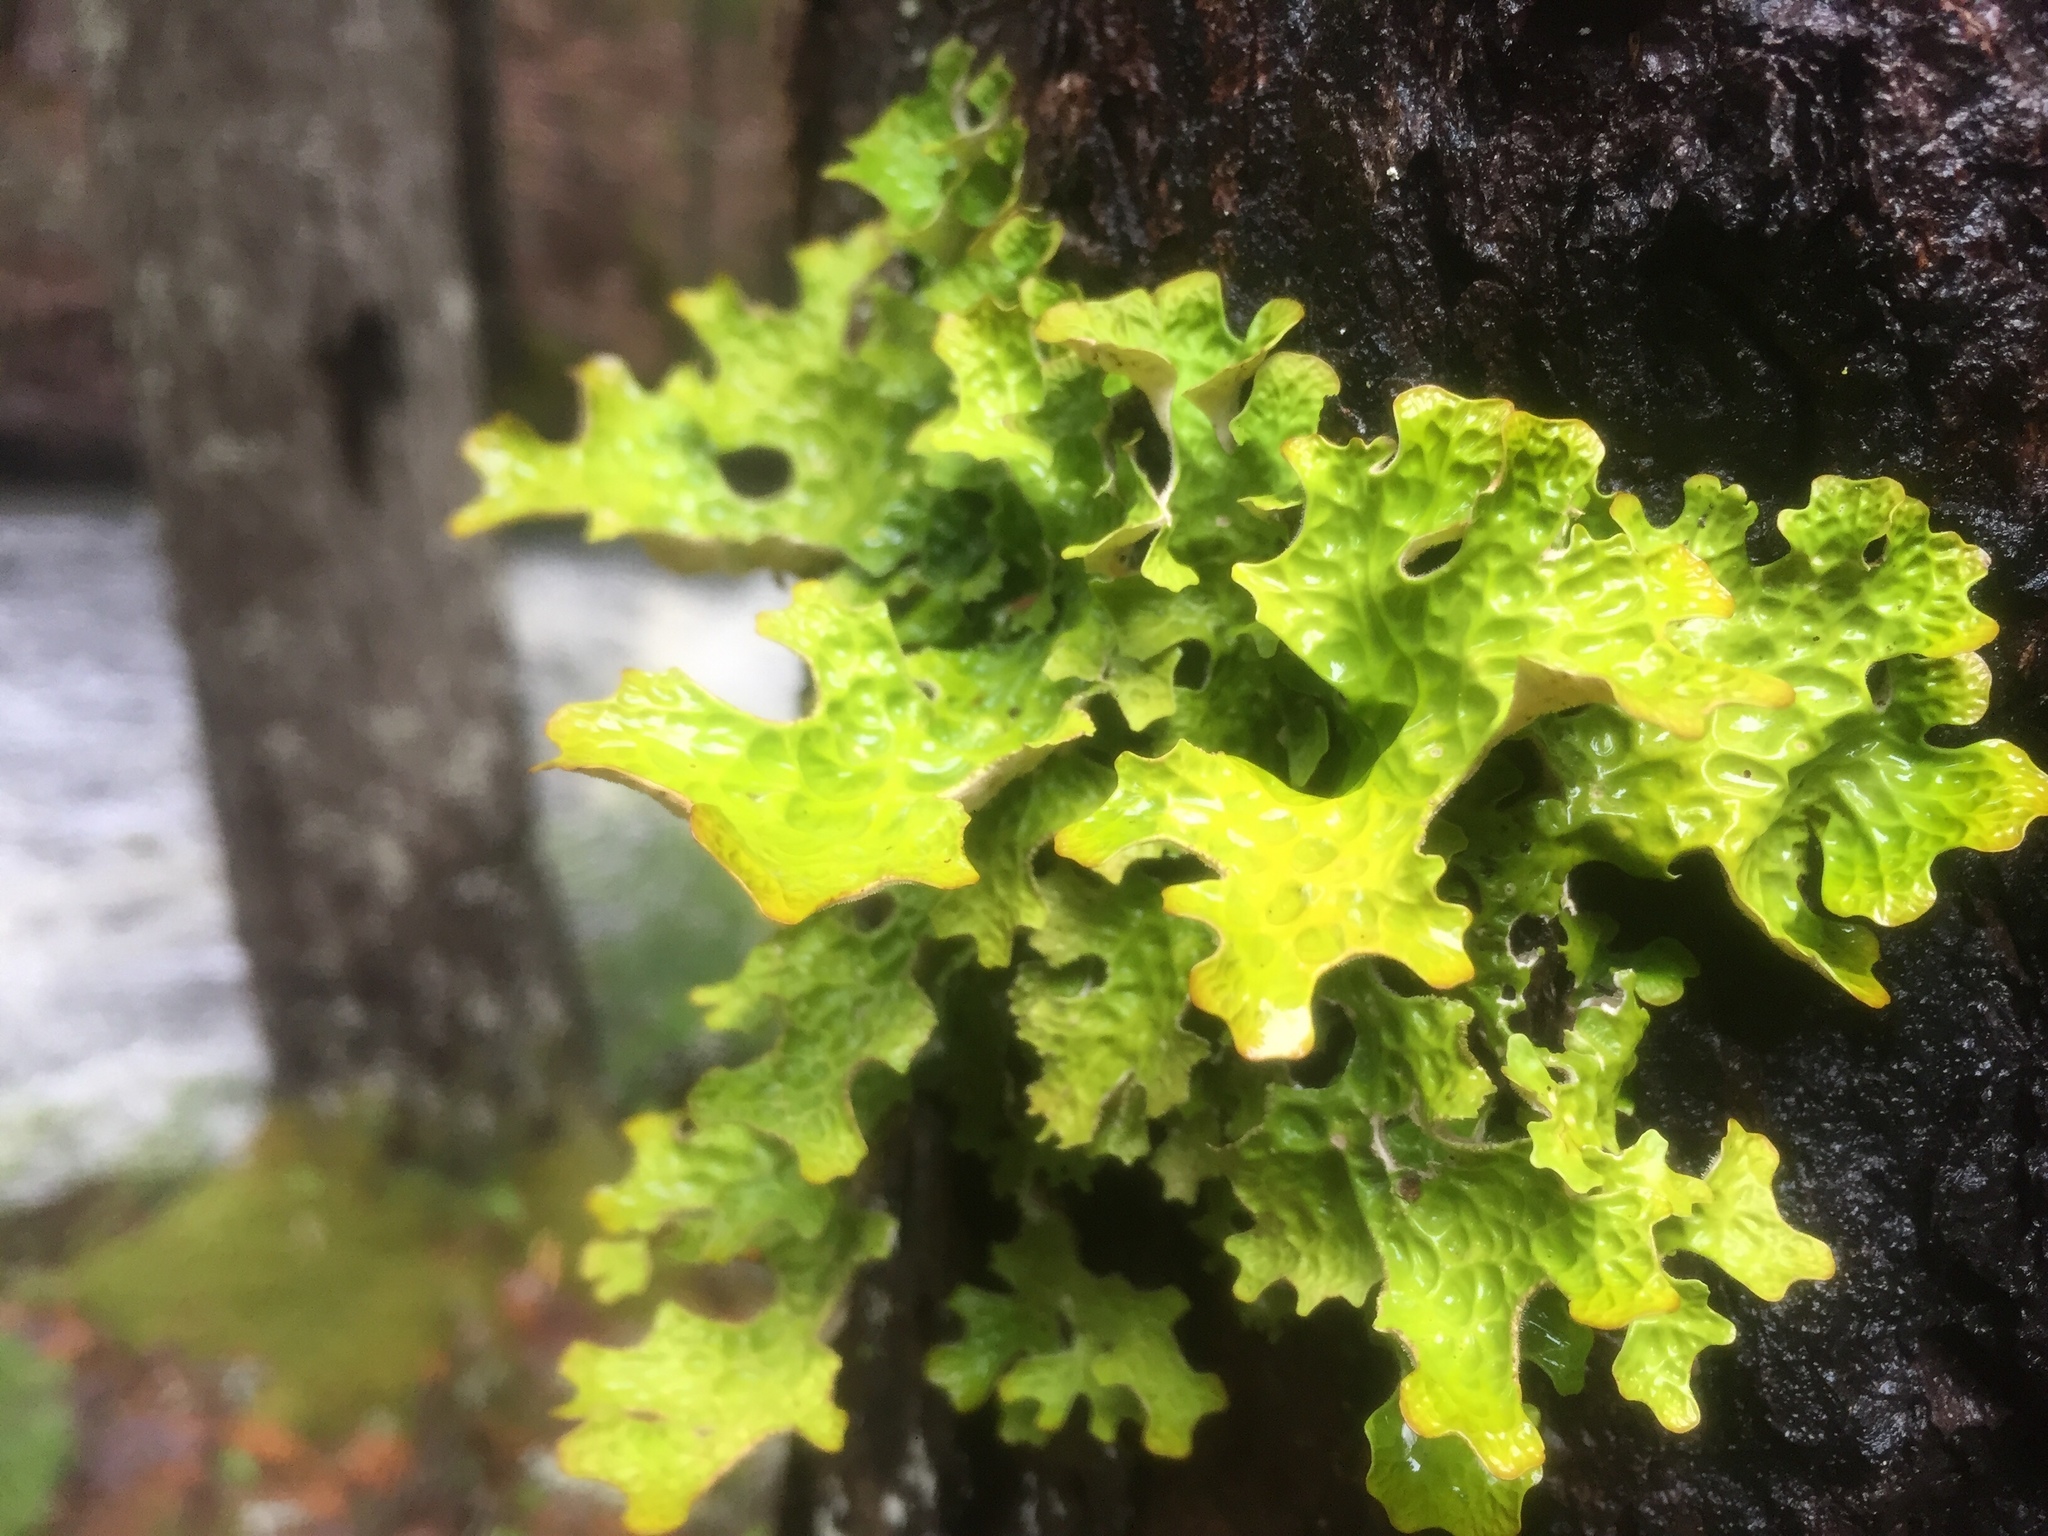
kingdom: Fungi
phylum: Ascomycota
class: Lecanoromycetes
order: Peltigerales
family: Lobariaceae
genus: Lobaria
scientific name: Lobaria pulmonaria
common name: Lungwort
